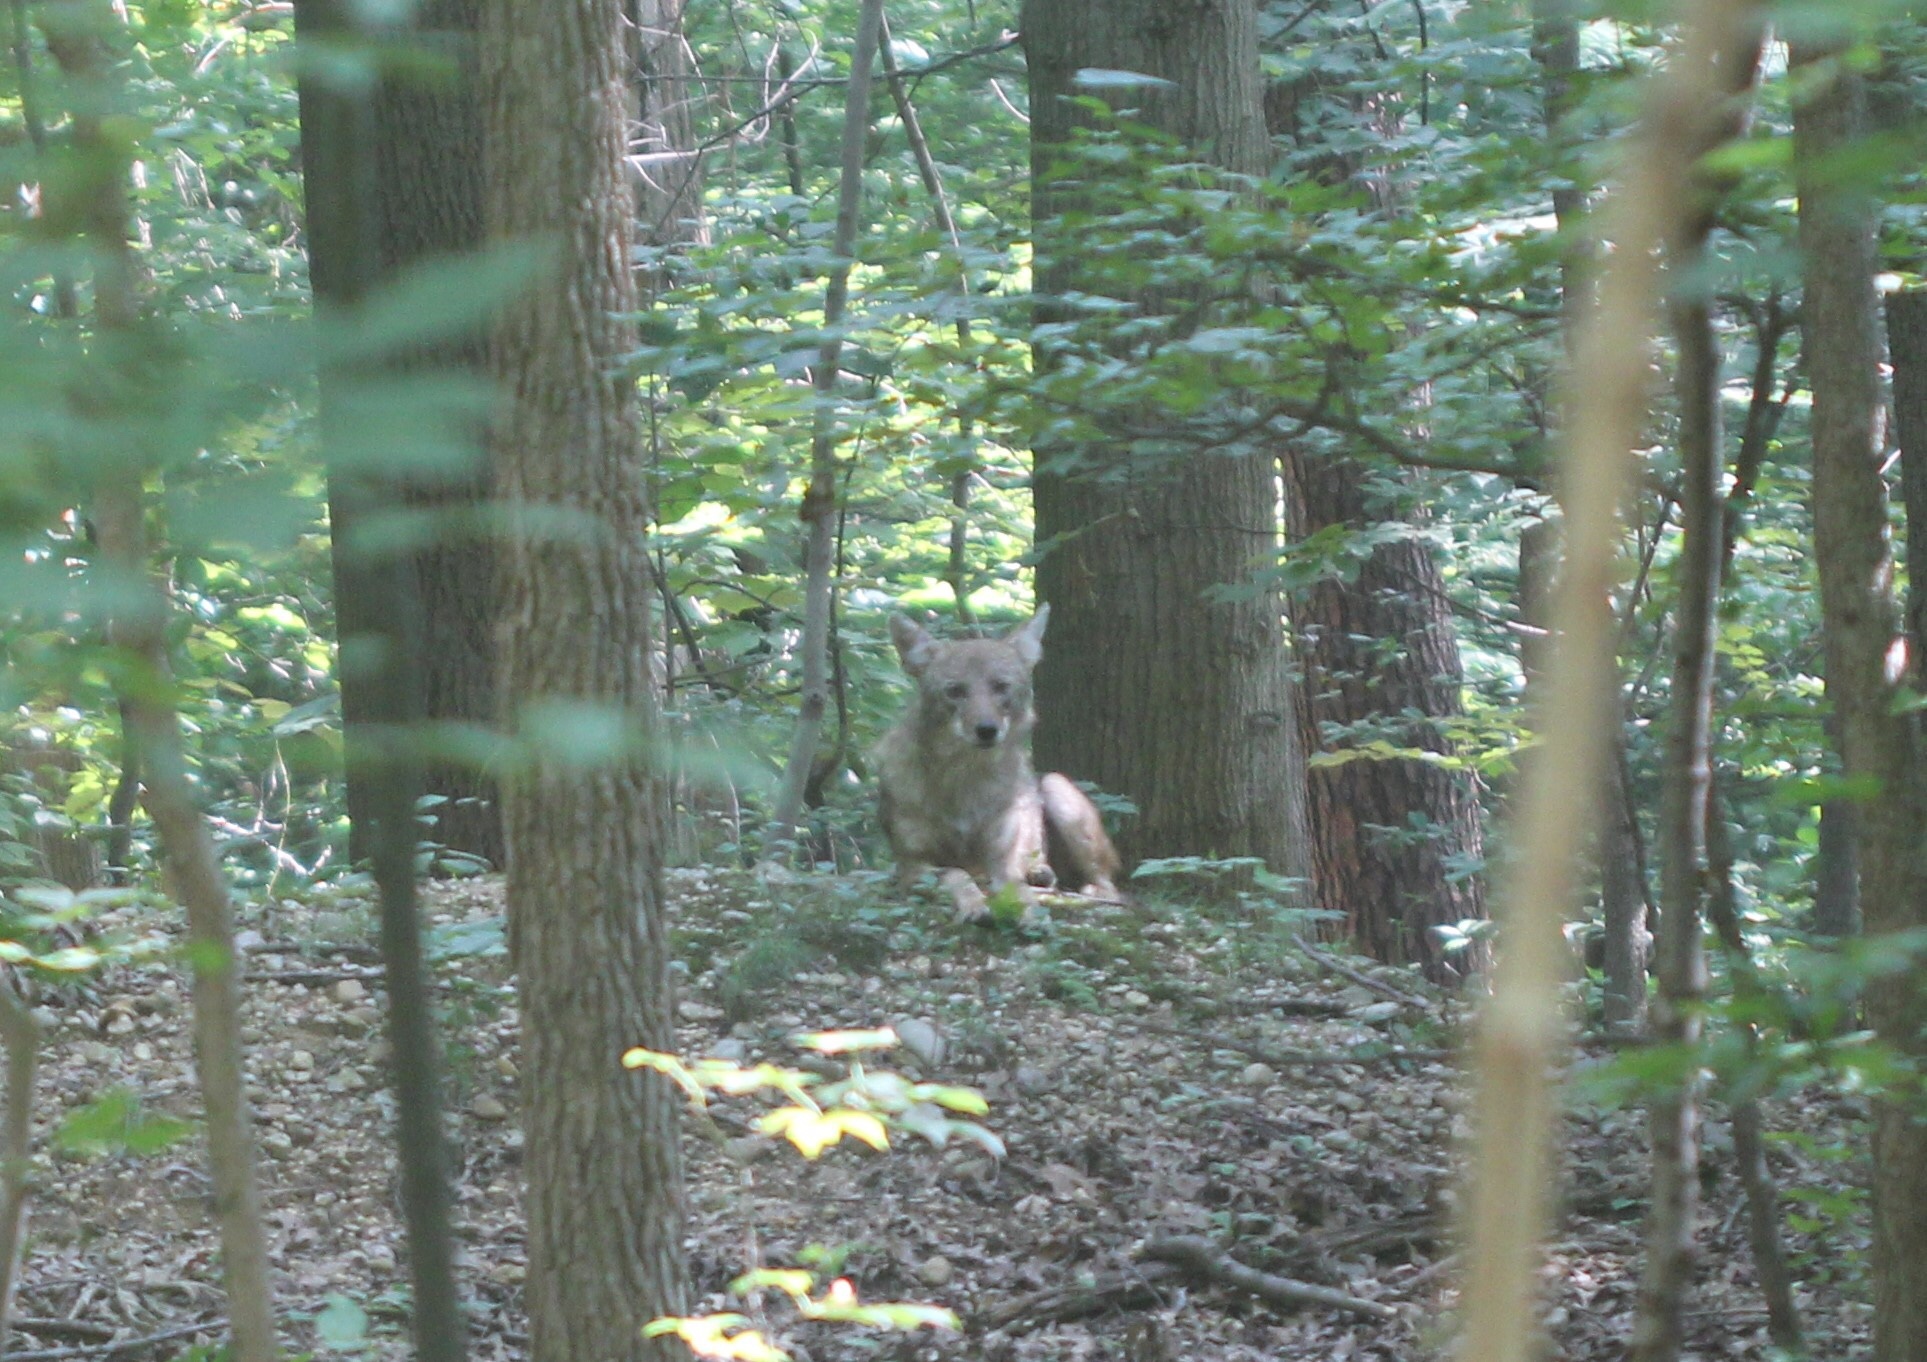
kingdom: Animalia
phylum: Chordata
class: Mammalia
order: Carnivora
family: Canidae
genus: Canis
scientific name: Canis latrans
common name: Coyote
